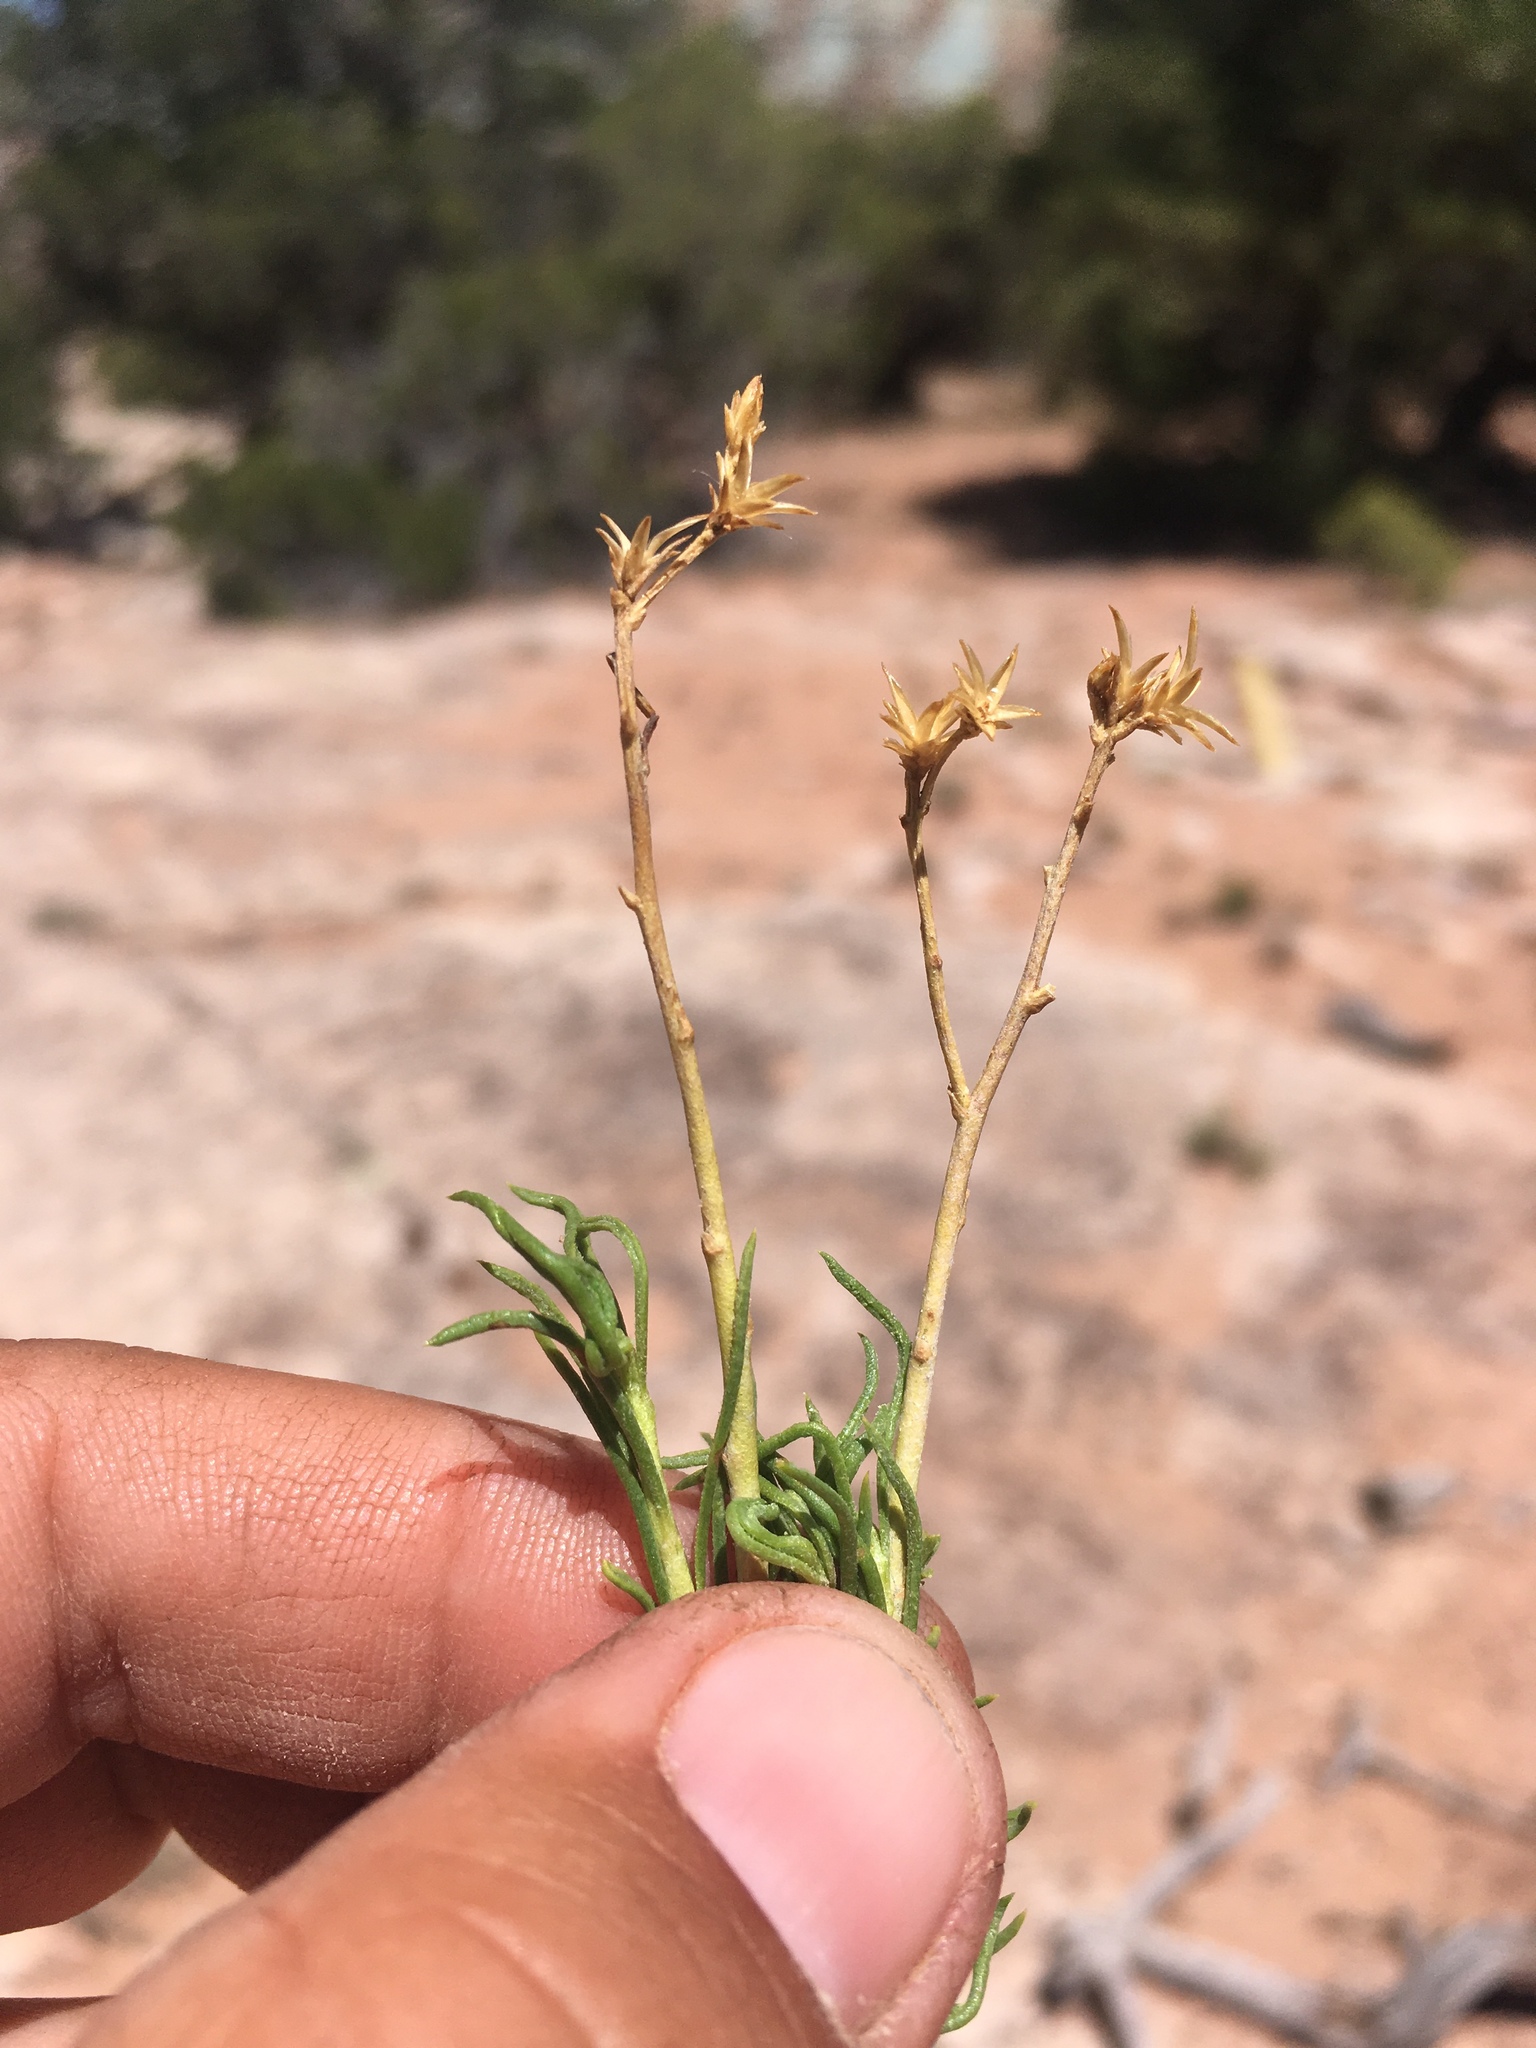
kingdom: Plantae
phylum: Tracheophyta
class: Magnoliopsida
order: Asterales
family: Asteraceae
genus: Ericameria
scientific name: Ericameria nauseosa
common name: Rubber rabbitbrush
